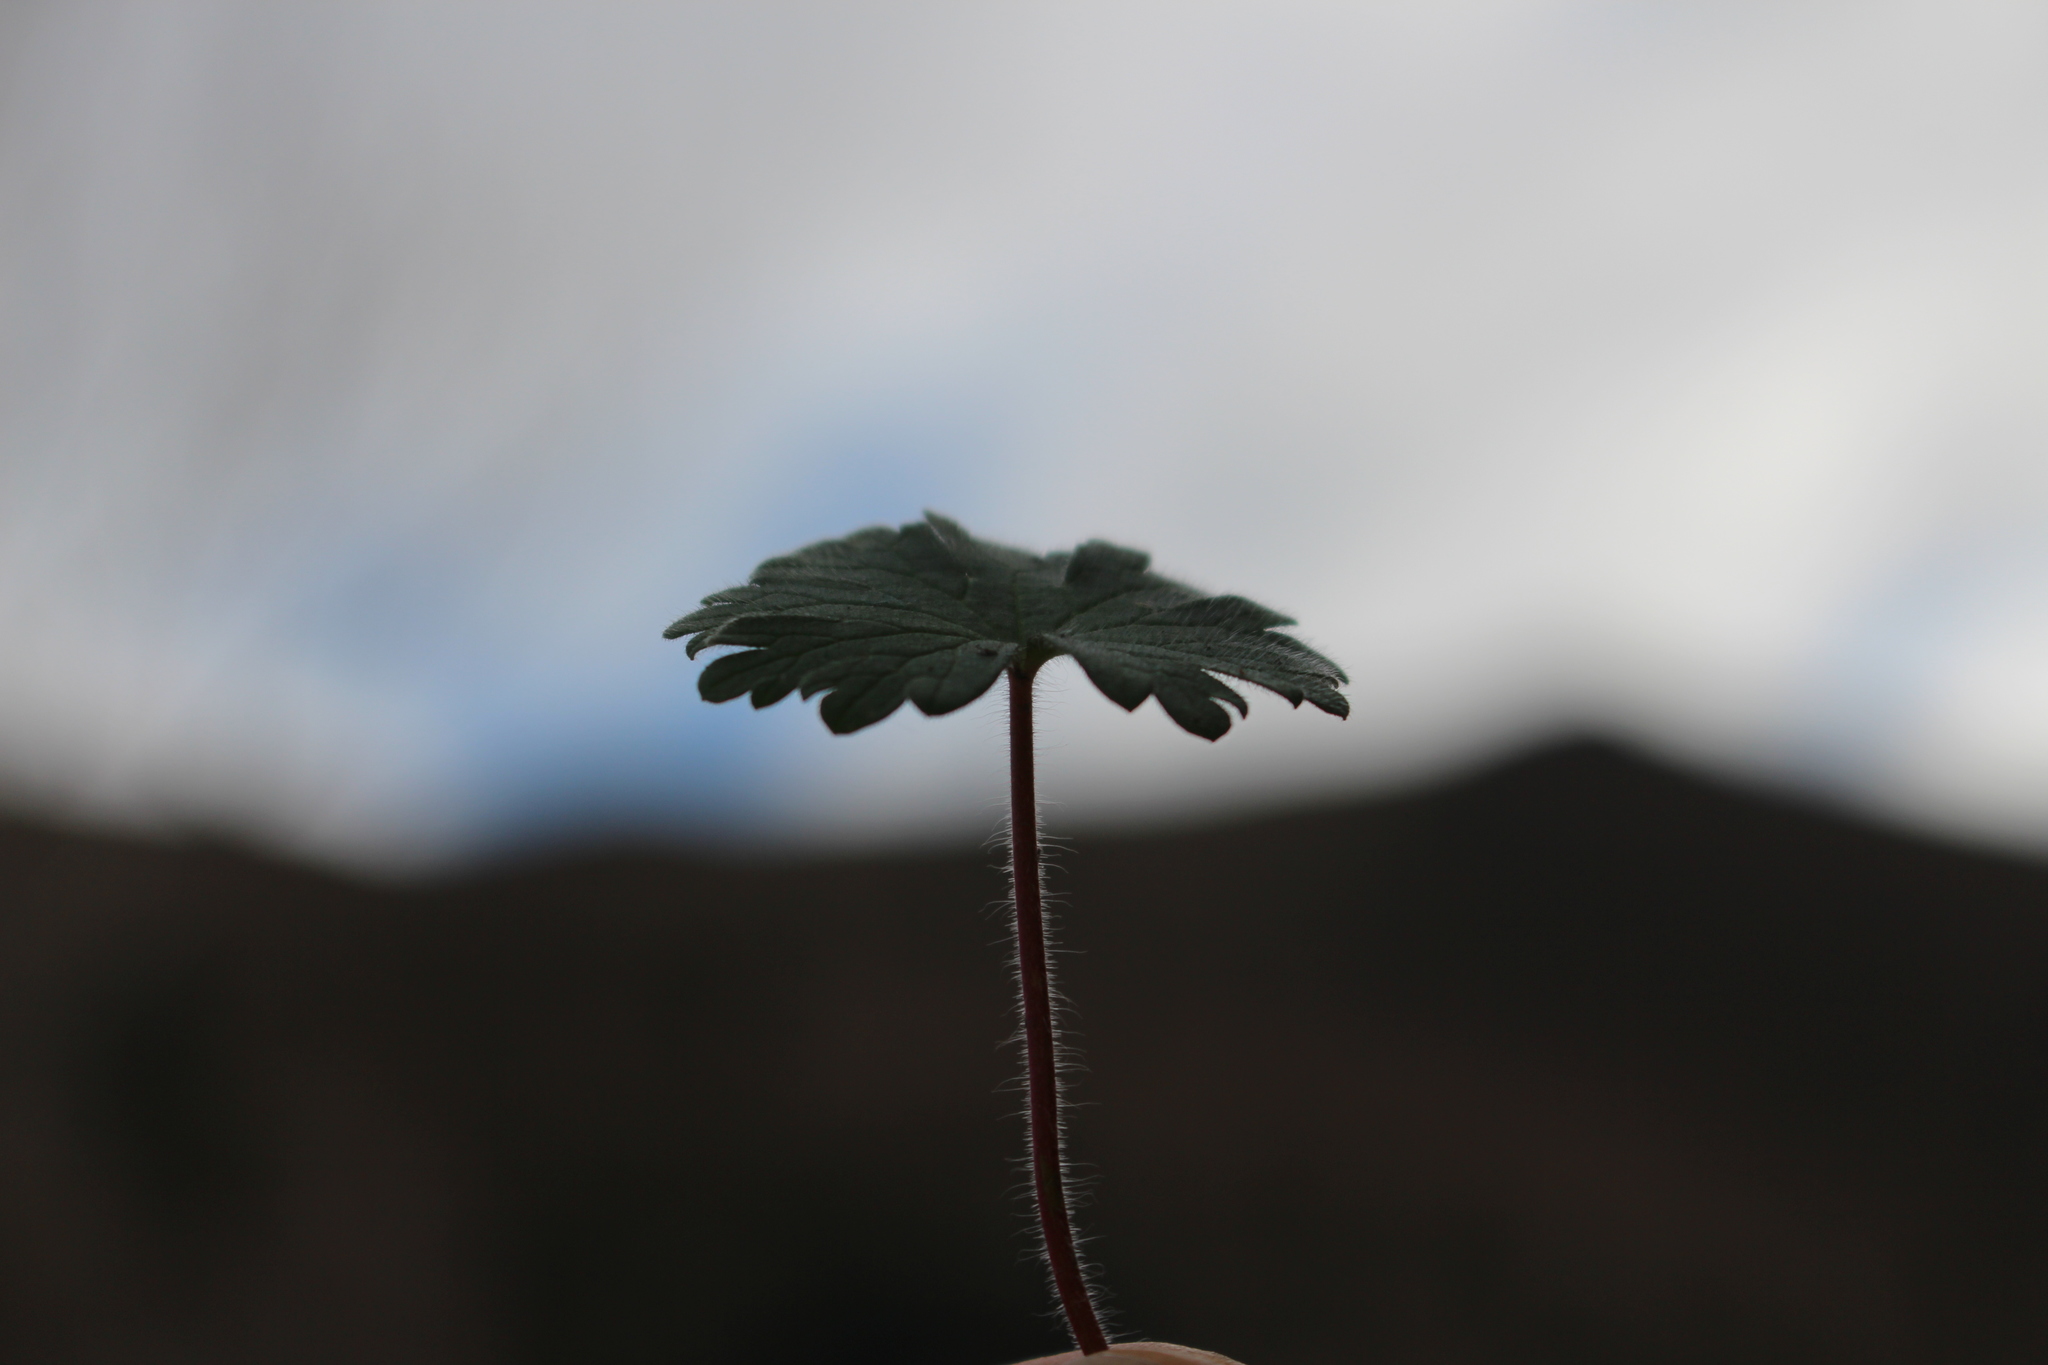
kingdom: Plantae
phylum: Tracheophyta
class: Magnoliopsida
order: Geraniales
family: Geraniaceae
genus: Geranium
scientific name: Geranium molle
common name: Dove's-foot crane's-bill
